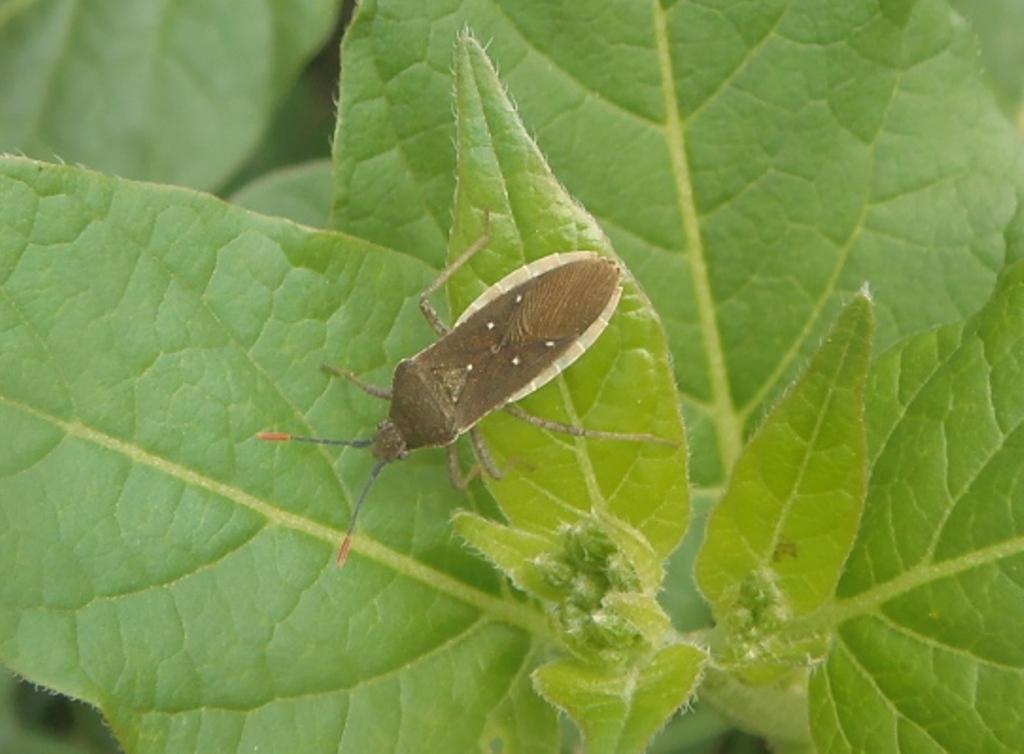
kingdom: Animalia
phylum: Arthropoda
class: Insecta
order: Hemiptera
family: Coreidae
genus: Catorhintha
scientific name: Catorhintha apicalis
